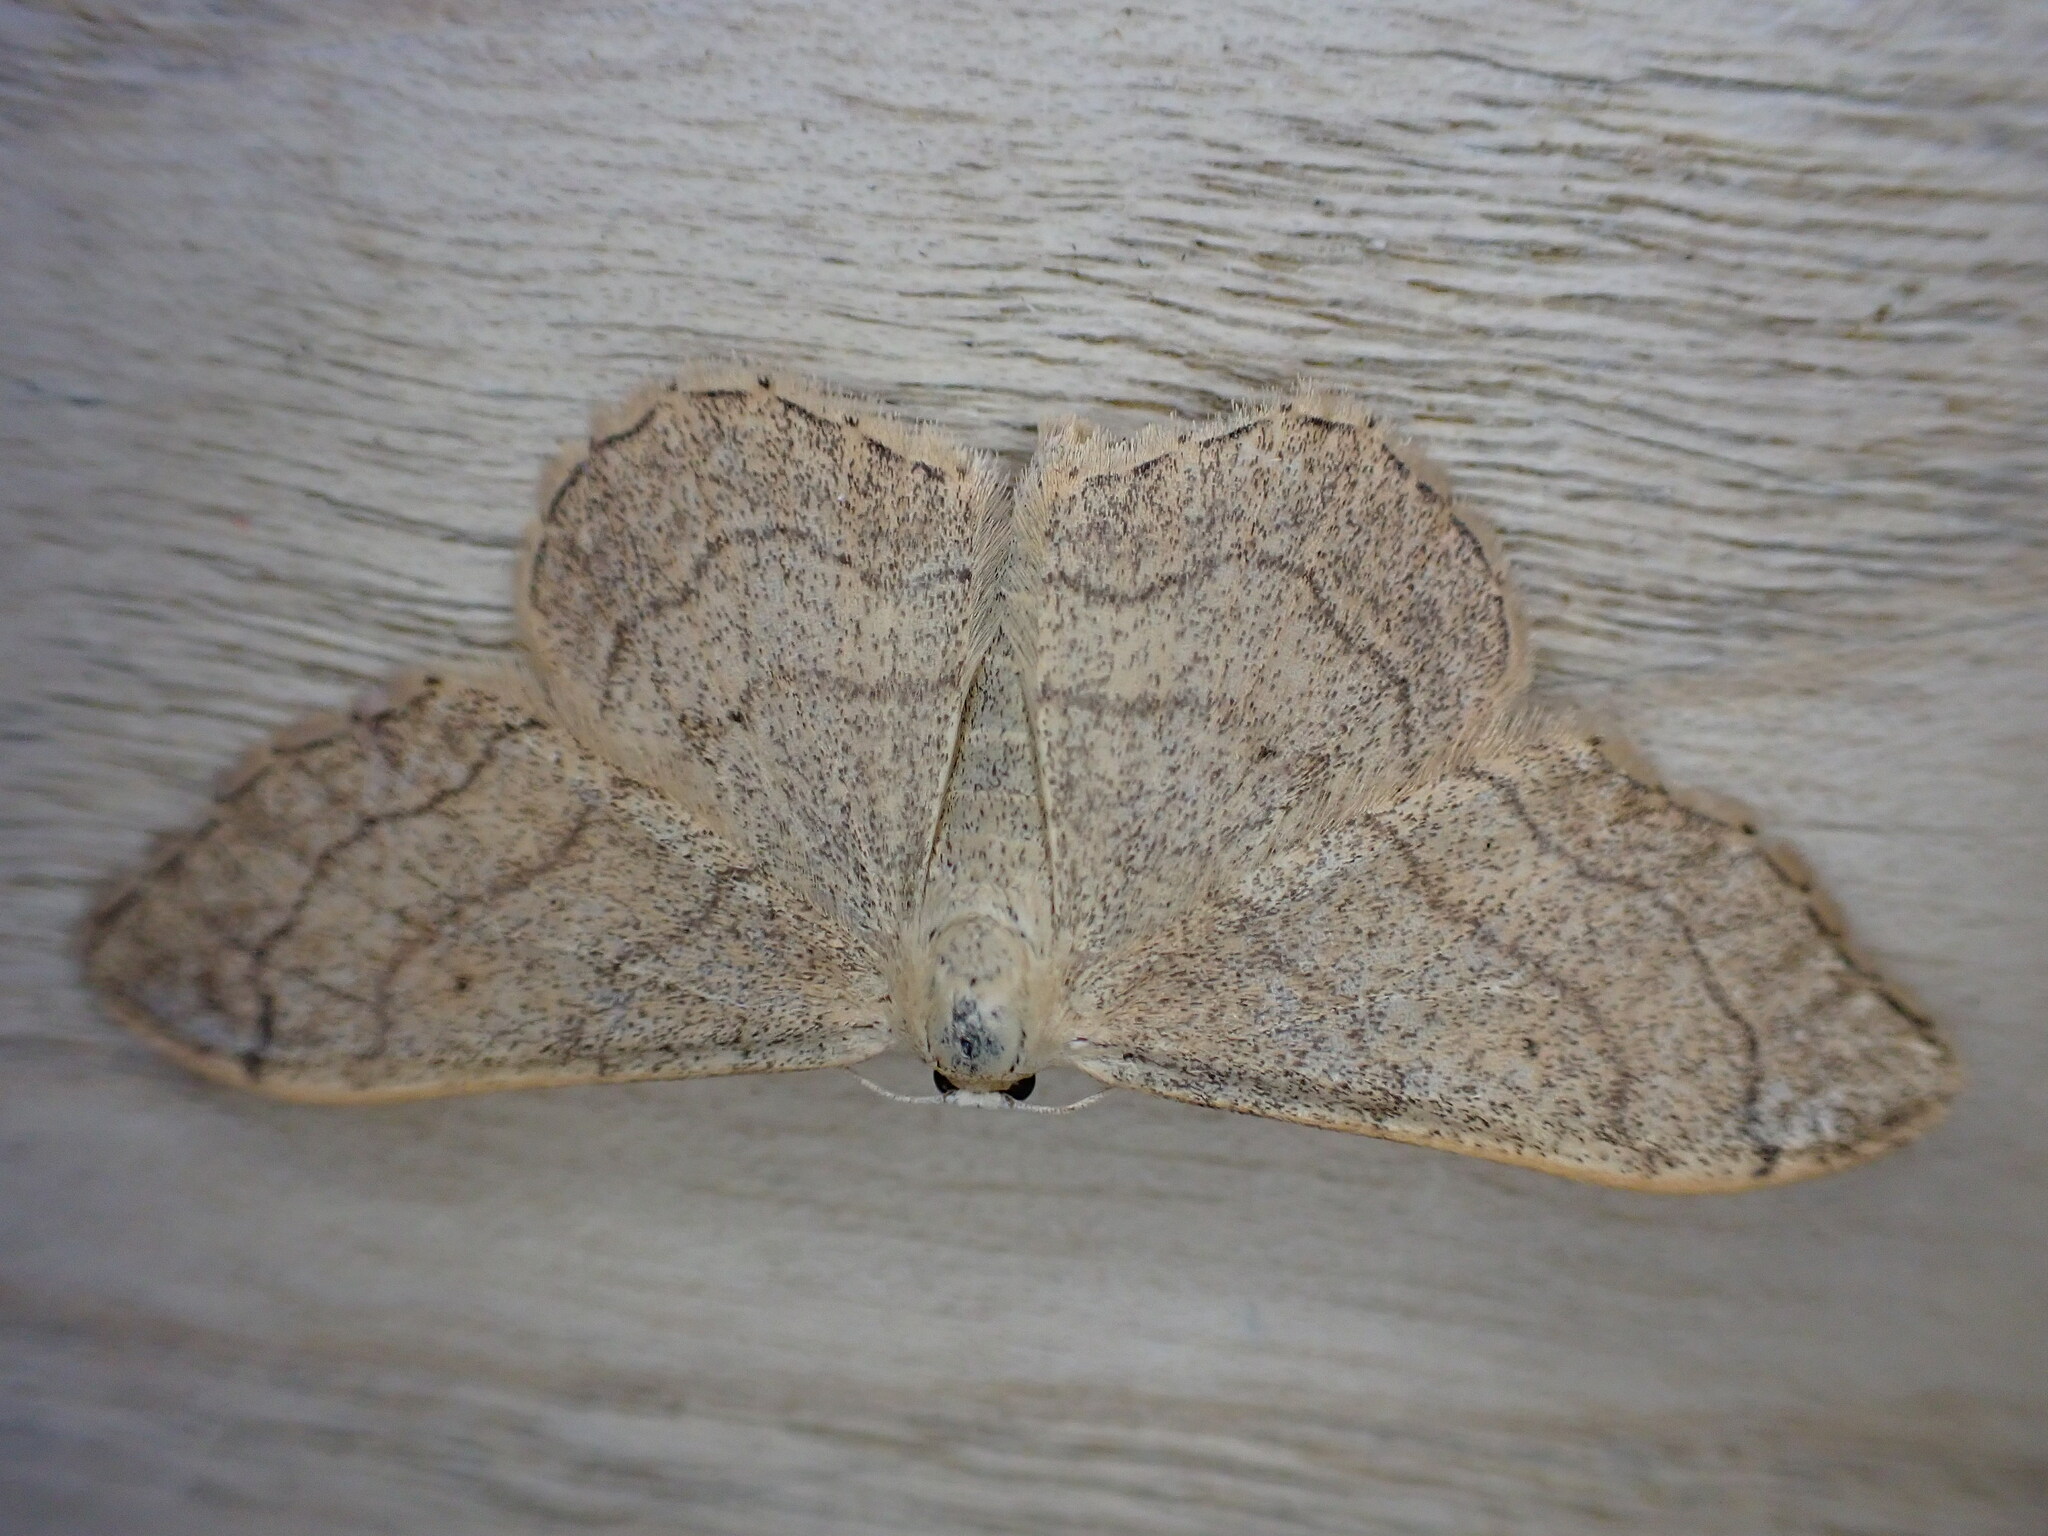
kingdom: Animalia
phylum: Arthropoda
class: Insecta
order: Lepidoptera
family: Geometridae
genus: Idaea
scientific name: Idaea aversata
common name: Riband wave
